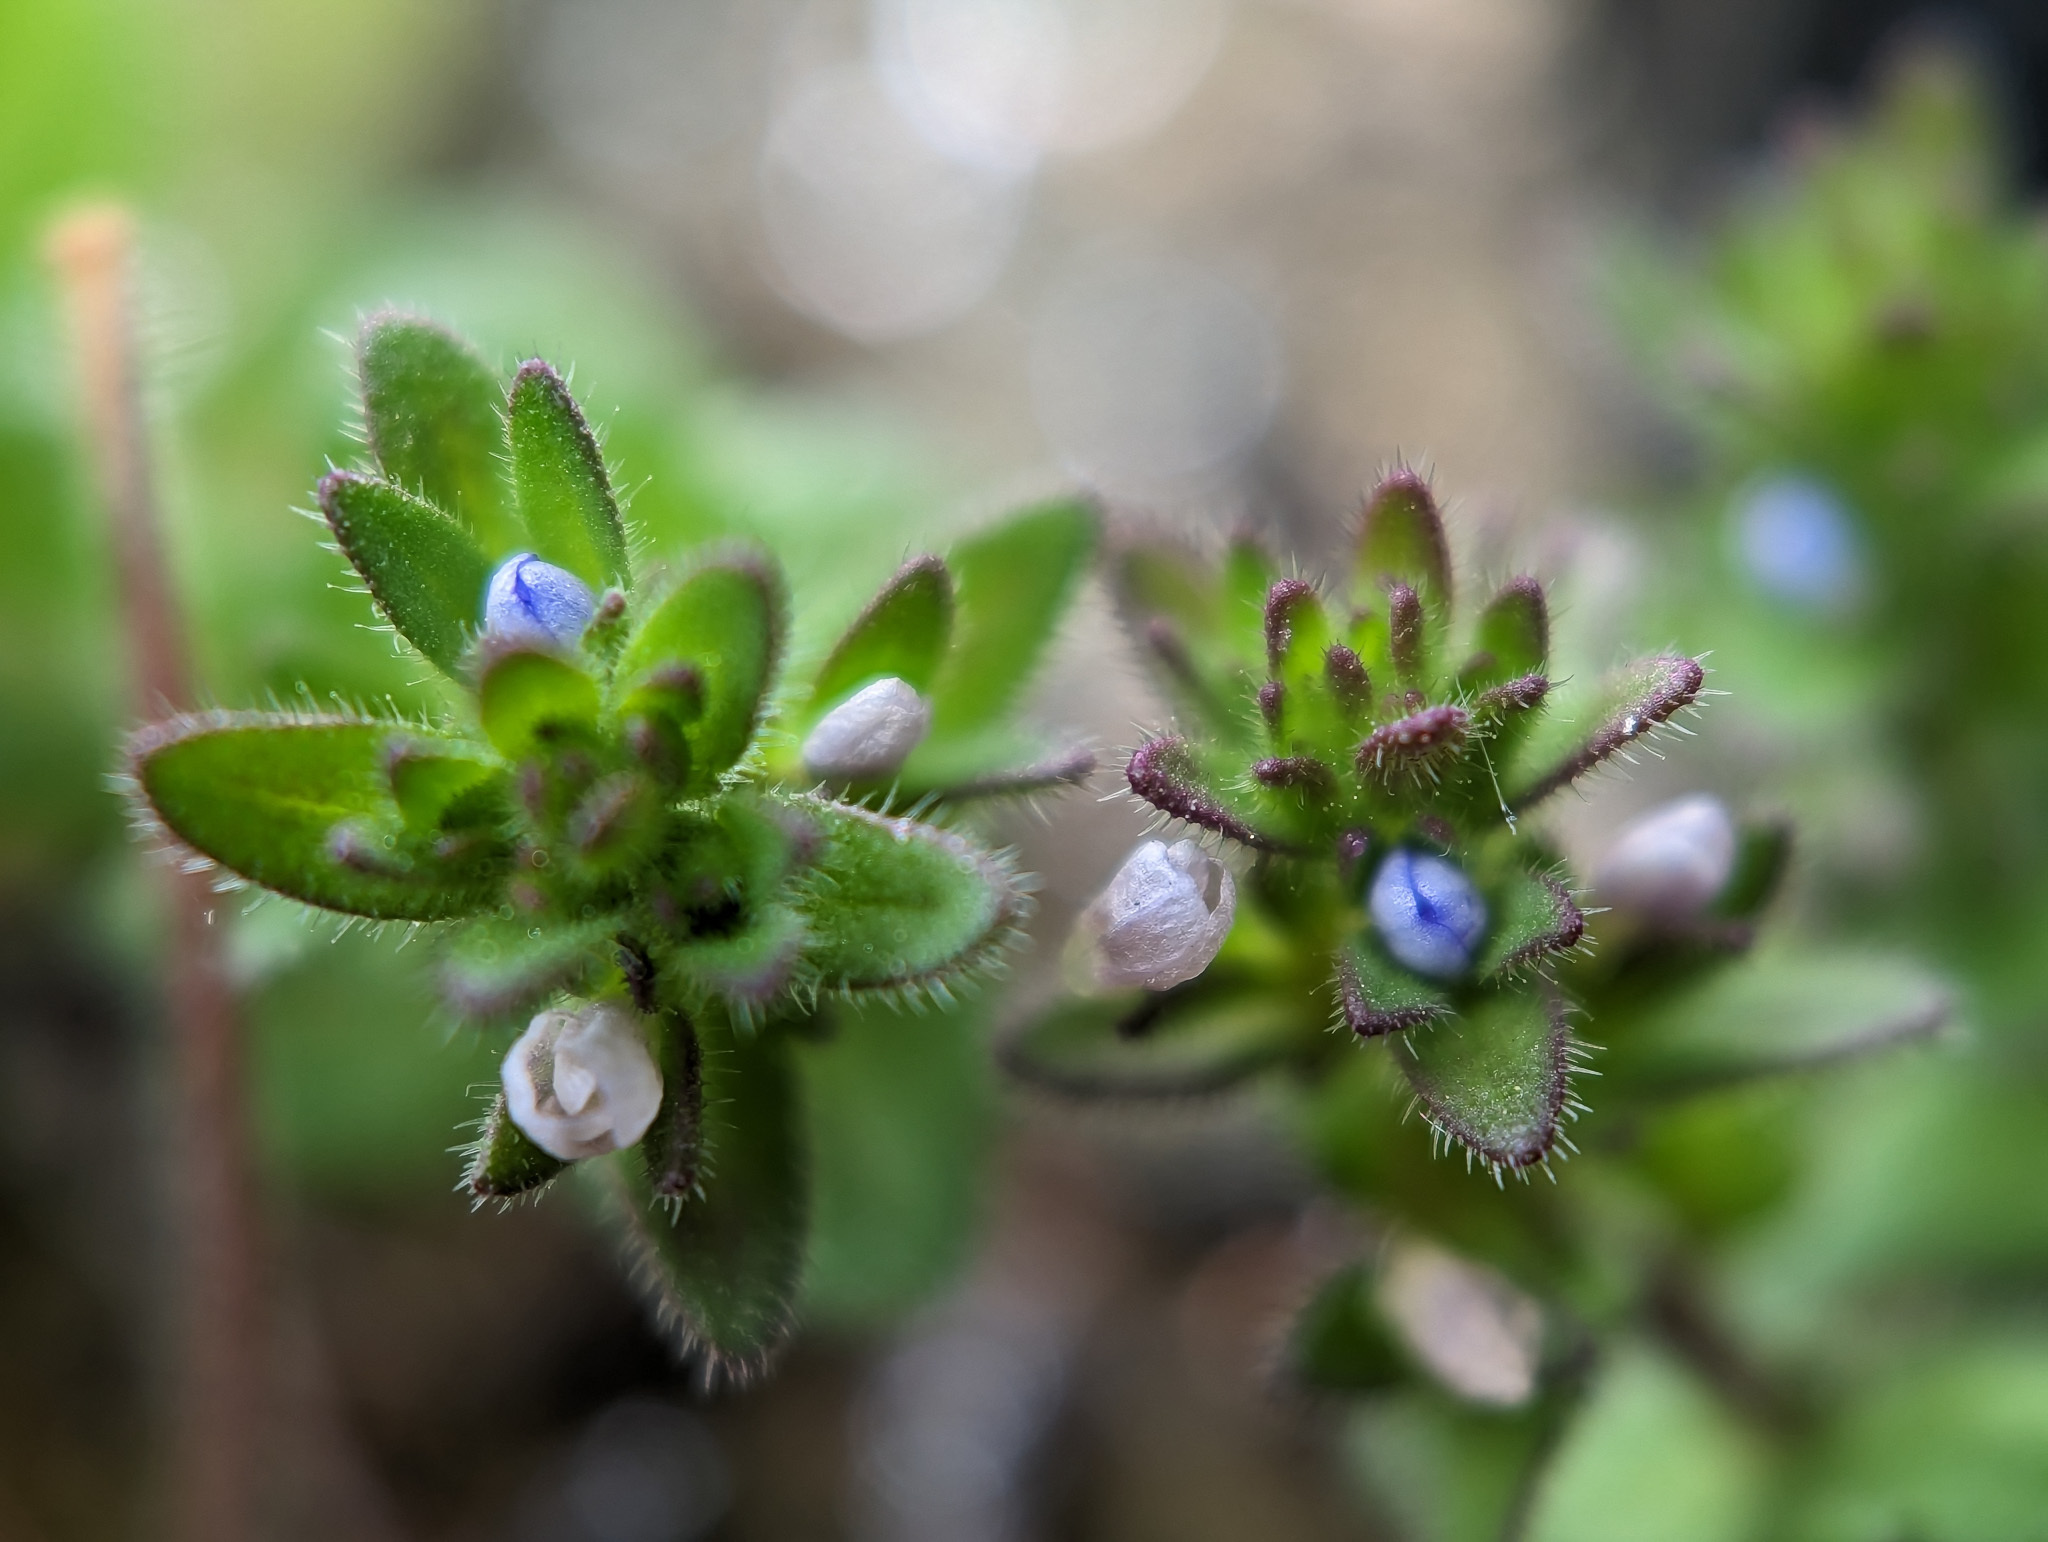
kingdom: Plantae
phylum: Tracheophyta
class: Magnoliopsida
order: Lamiales
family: Plantaginaceae
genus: Veronica
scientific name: Veronica arvensis
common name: Corn speedwell
